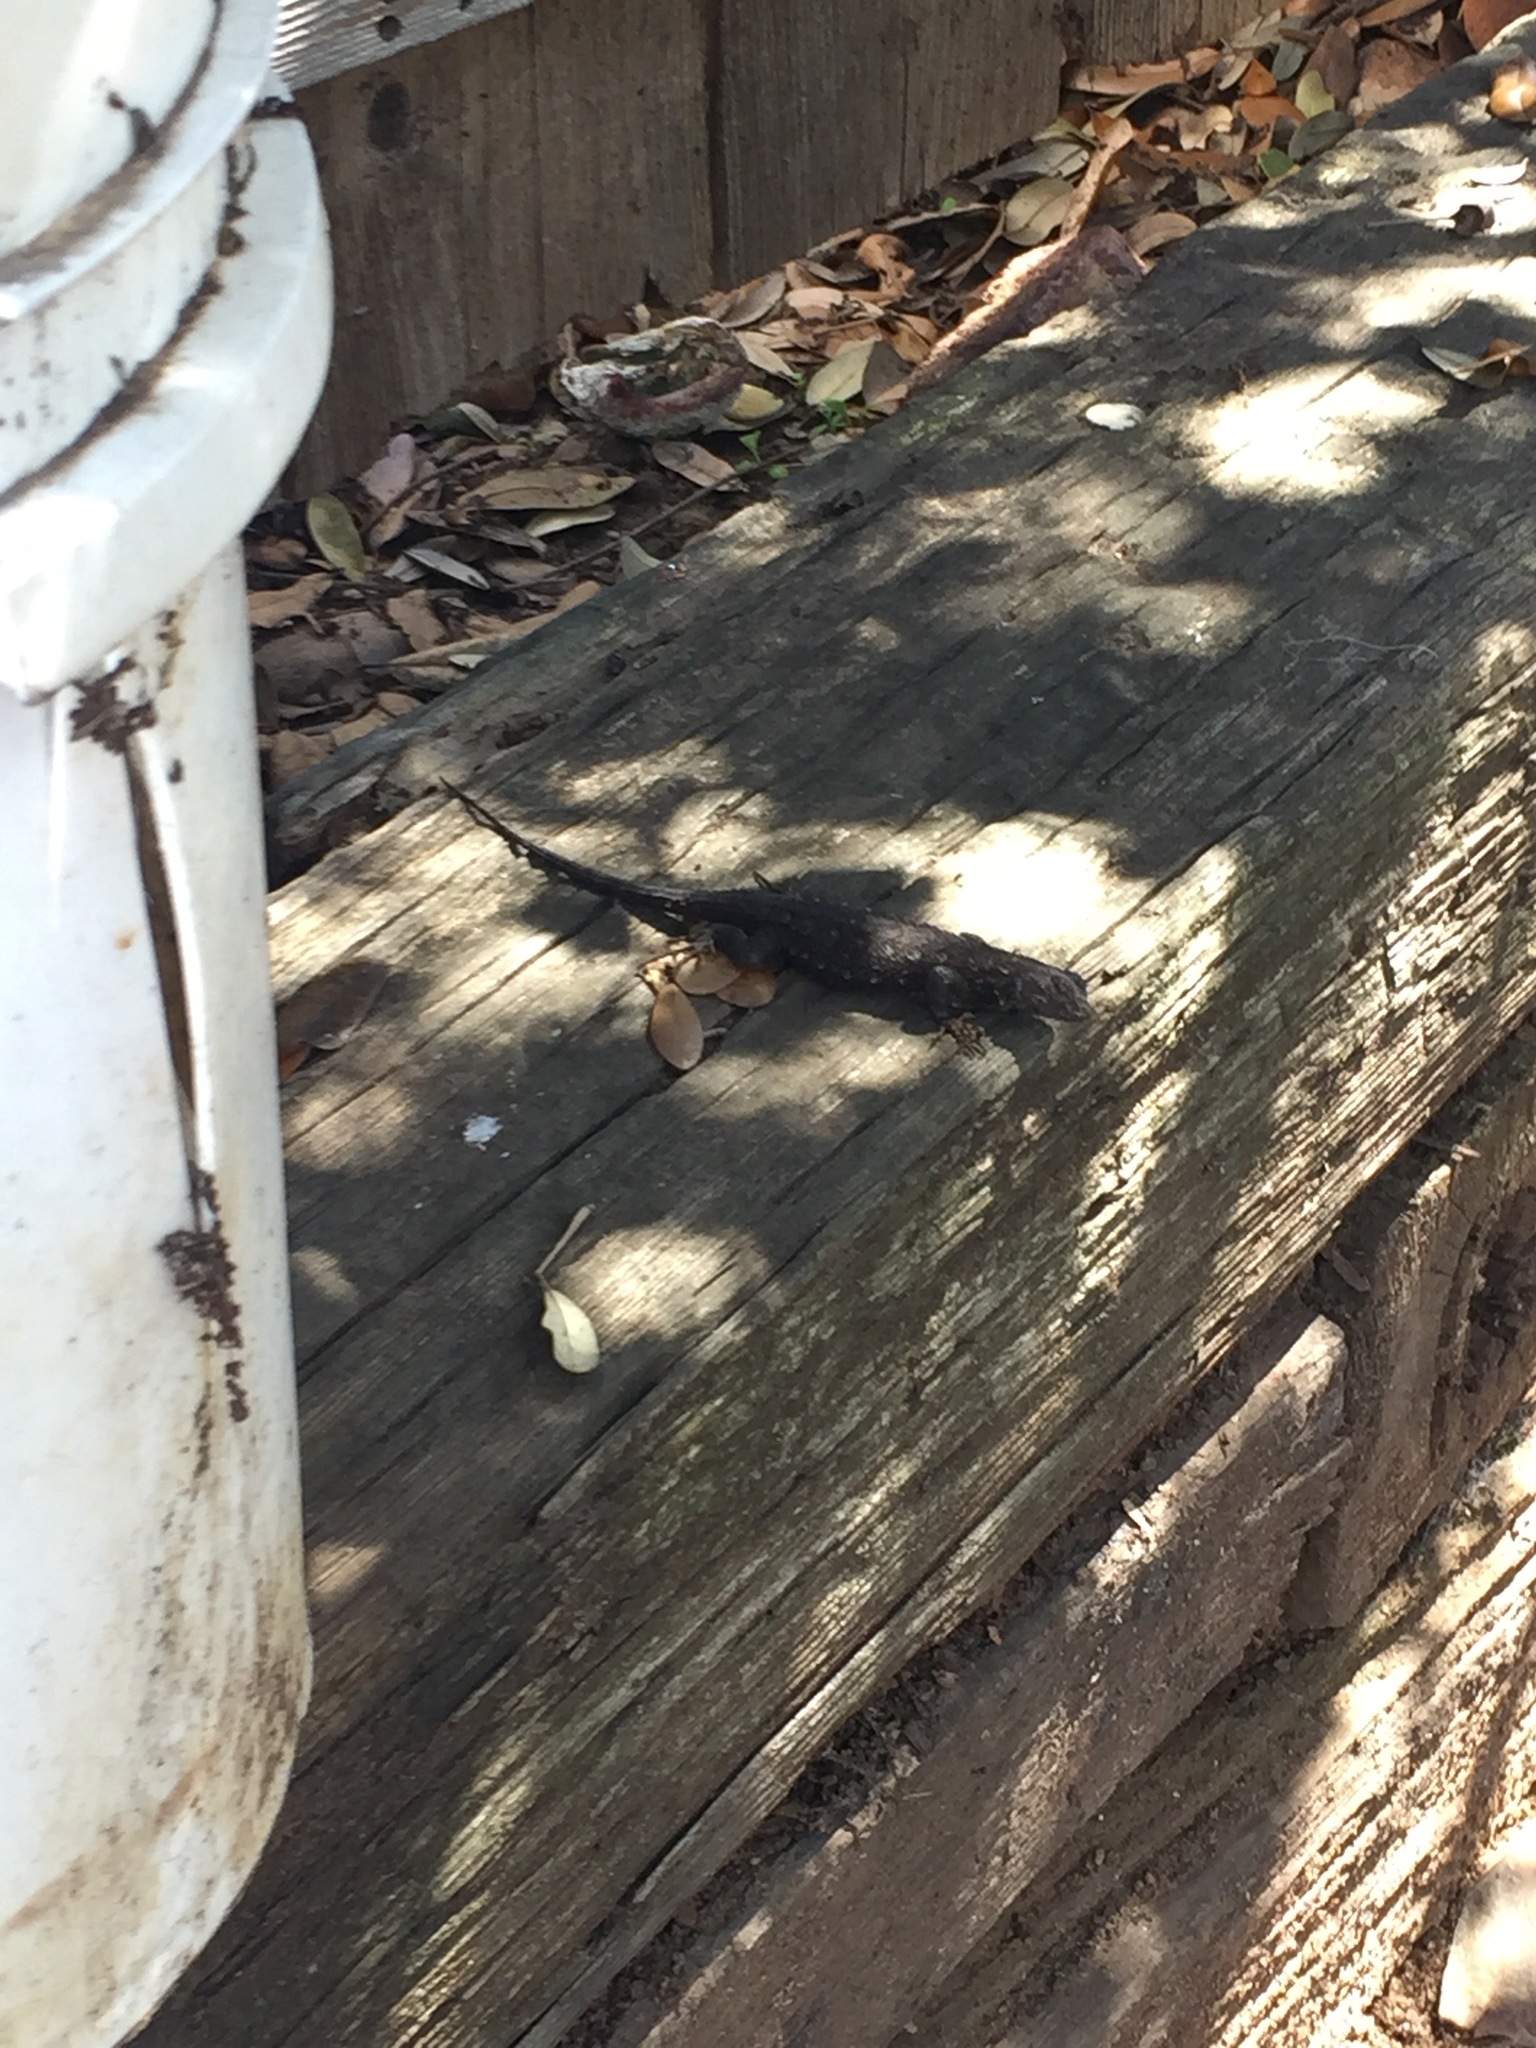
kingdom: Animalia
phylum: Chordata
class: Squamata
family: Phrynosomatidae
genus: Sceloporus
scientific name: Sceloporus occidentalis
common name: Western fence lizard
